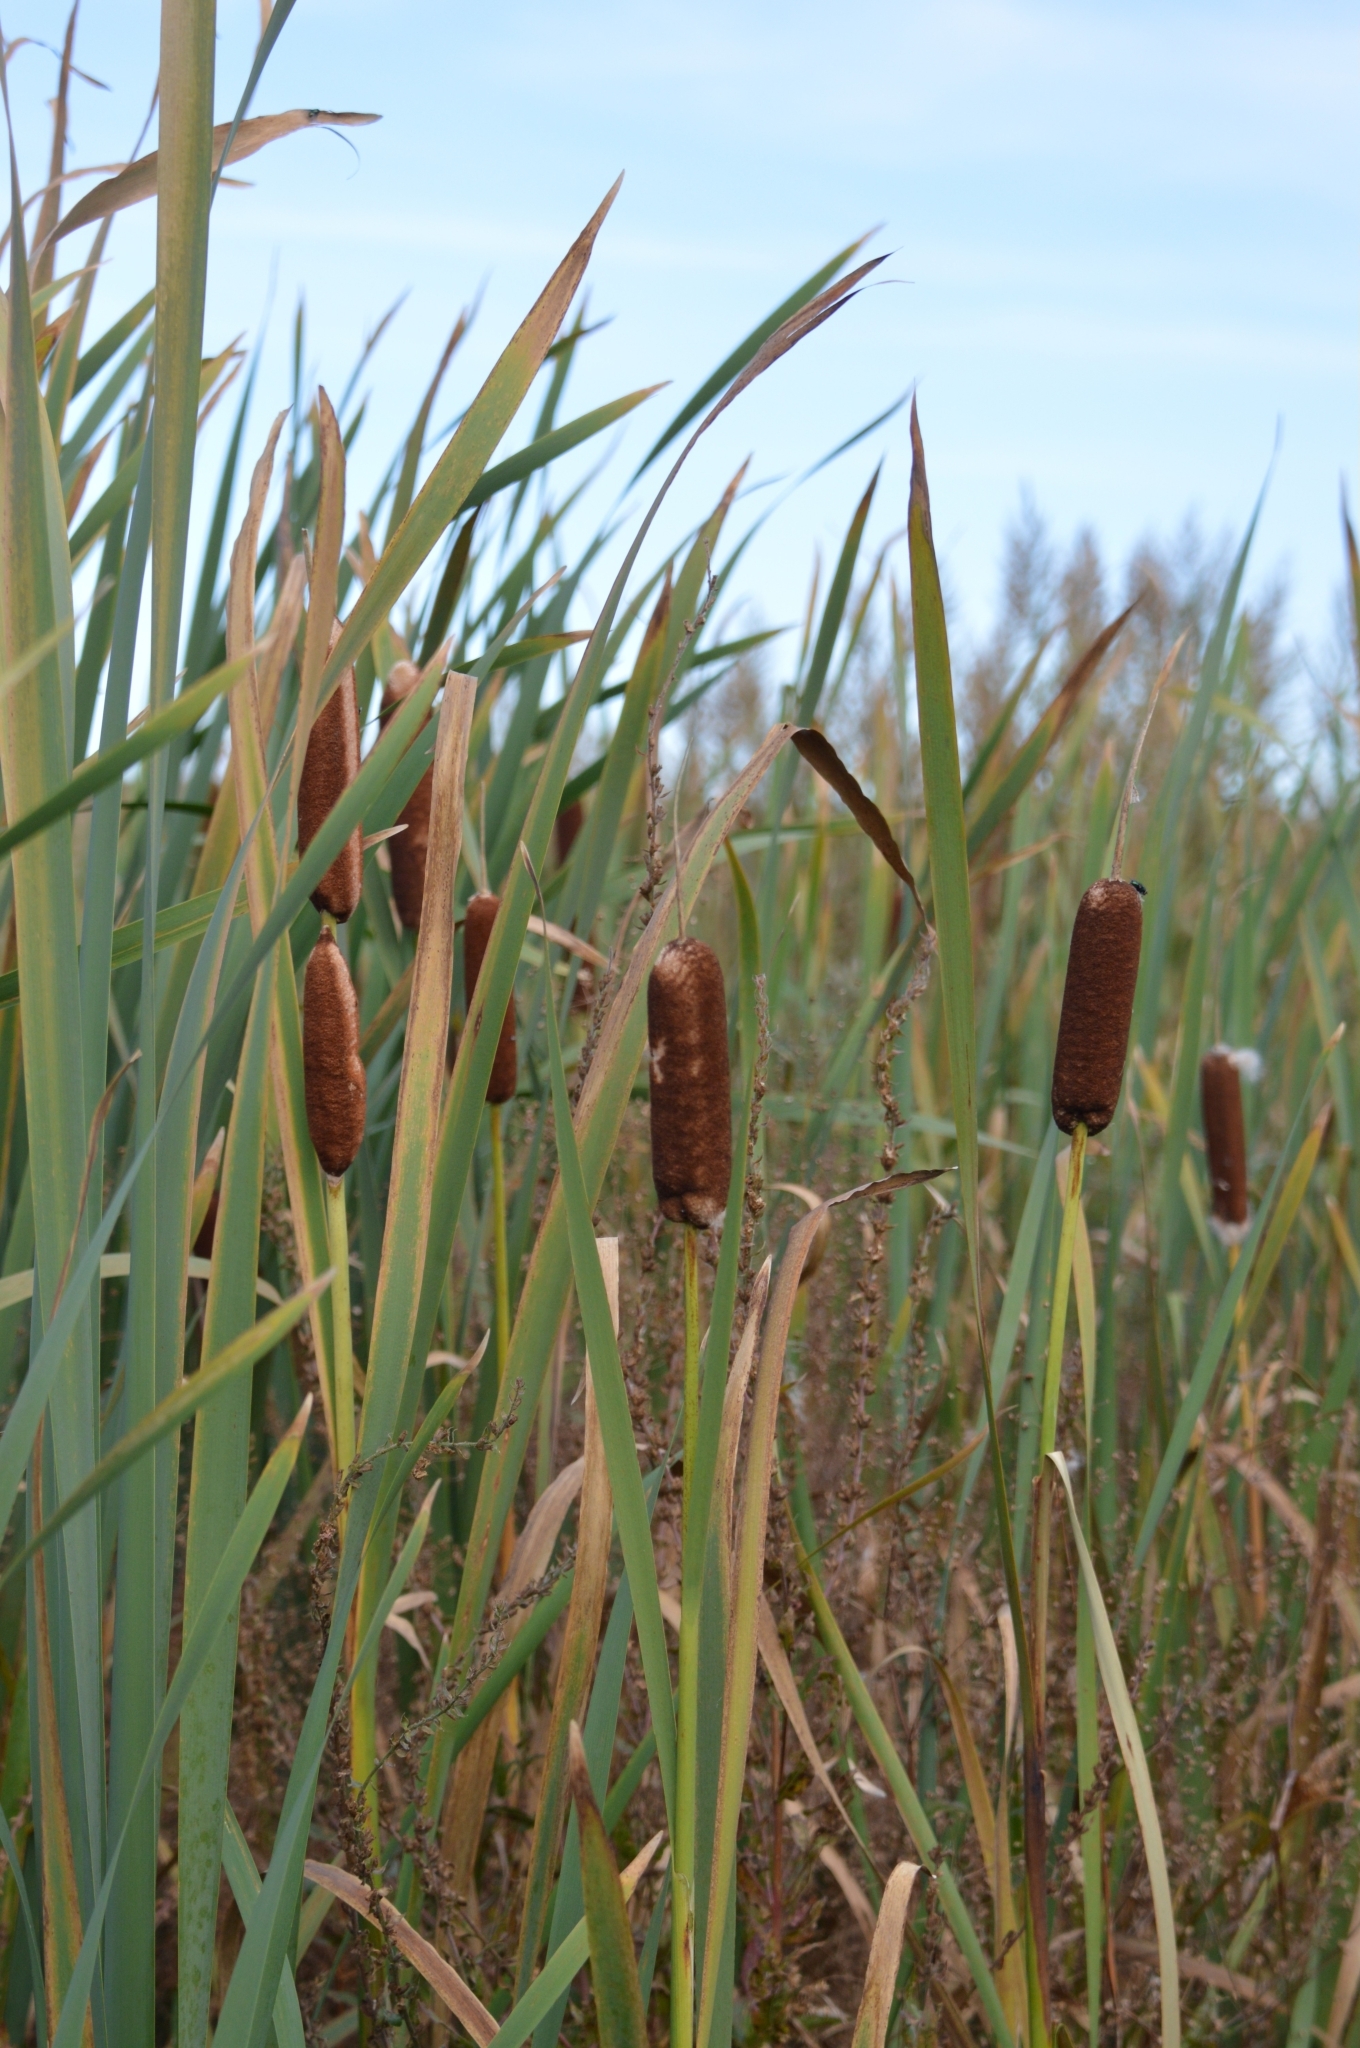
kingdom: Plantae
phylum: Tracheophyta
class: Liliopsida
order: Poales
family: Typhaceae
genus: Typha
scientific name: Typha latifolia
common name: Broadleaf cattail
